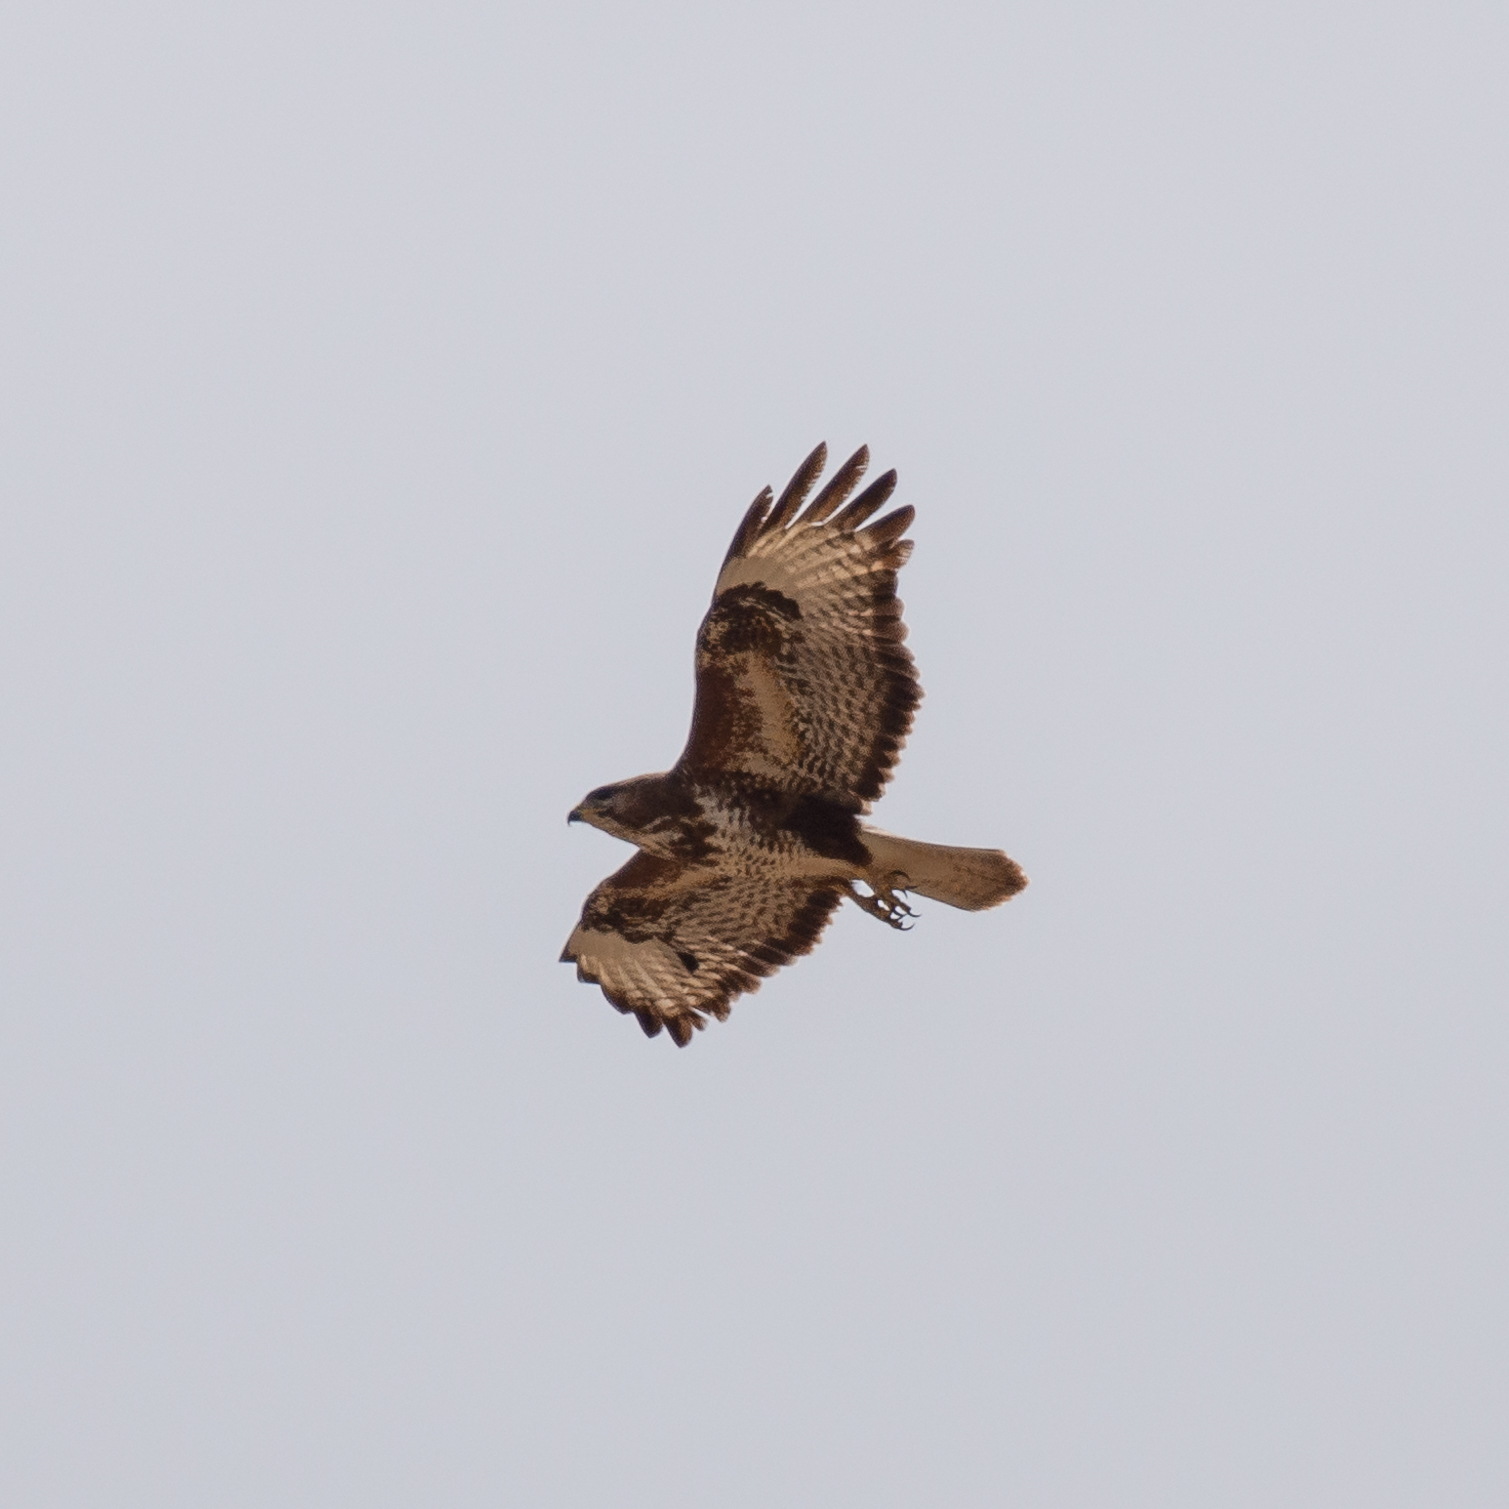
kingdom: Animalia
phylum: Chordata
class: Aves
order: Accipitriformes
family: Accipitridae
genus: Buteo
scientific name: Buteo buteo
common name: Common buzzard
